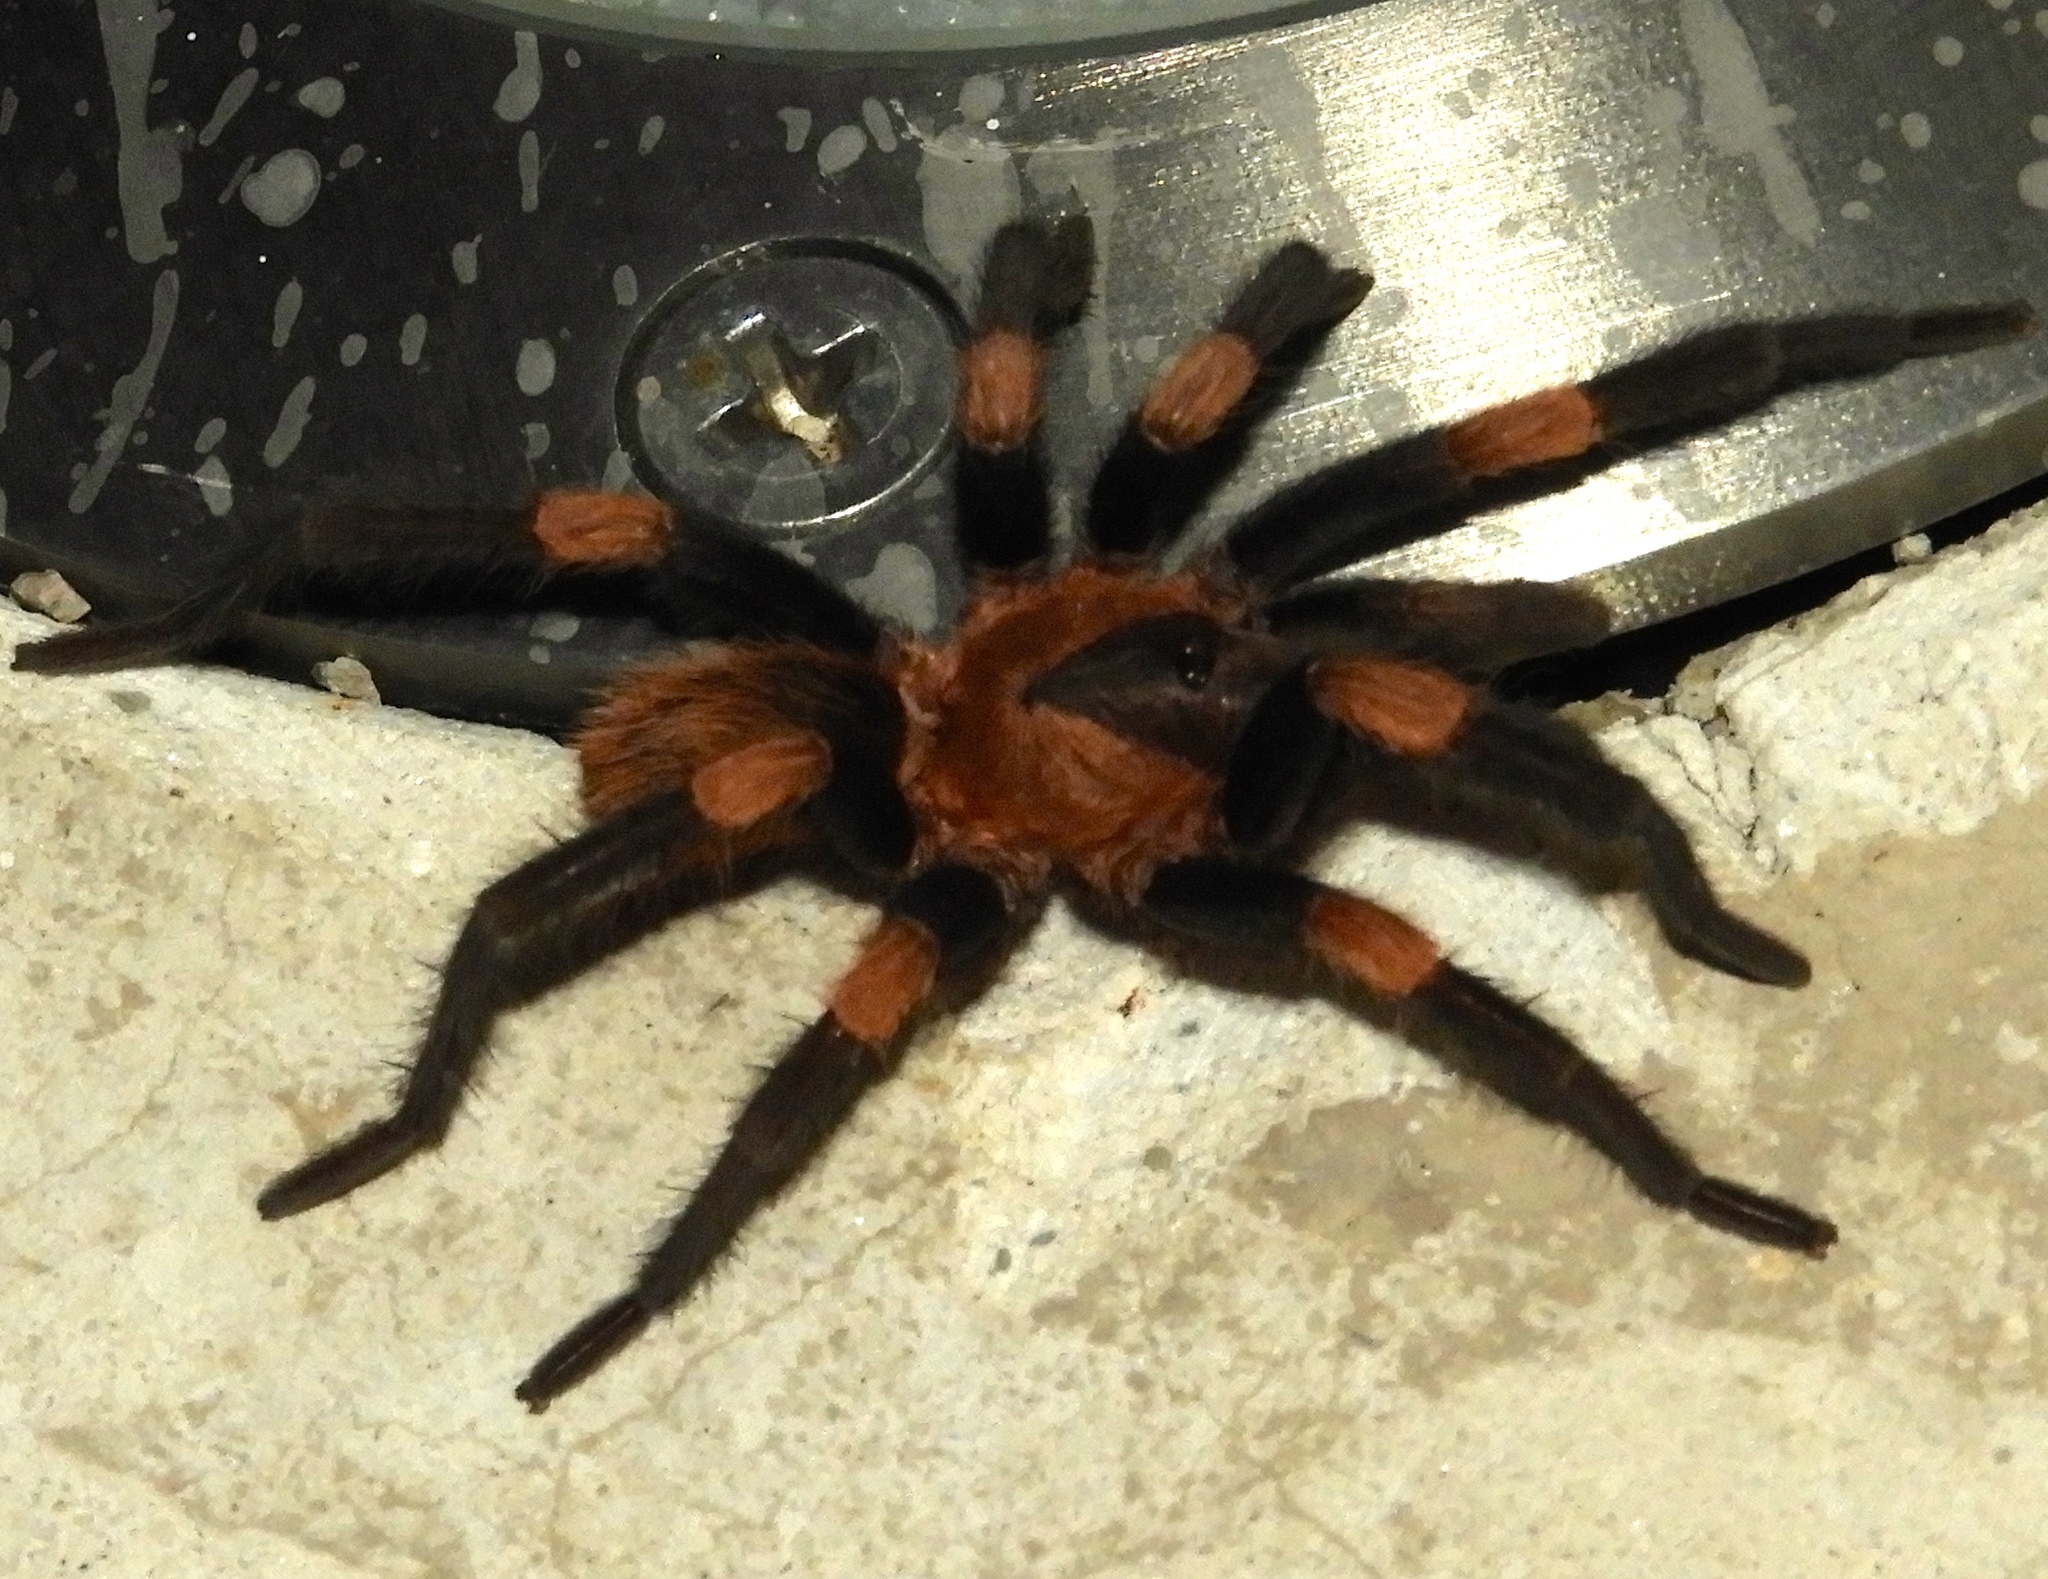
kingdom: Animalia
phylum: Arthropoda
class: Arachnida
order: Araneae
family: Theraphosidae
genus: Magnacarina
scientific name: Magnacarina
